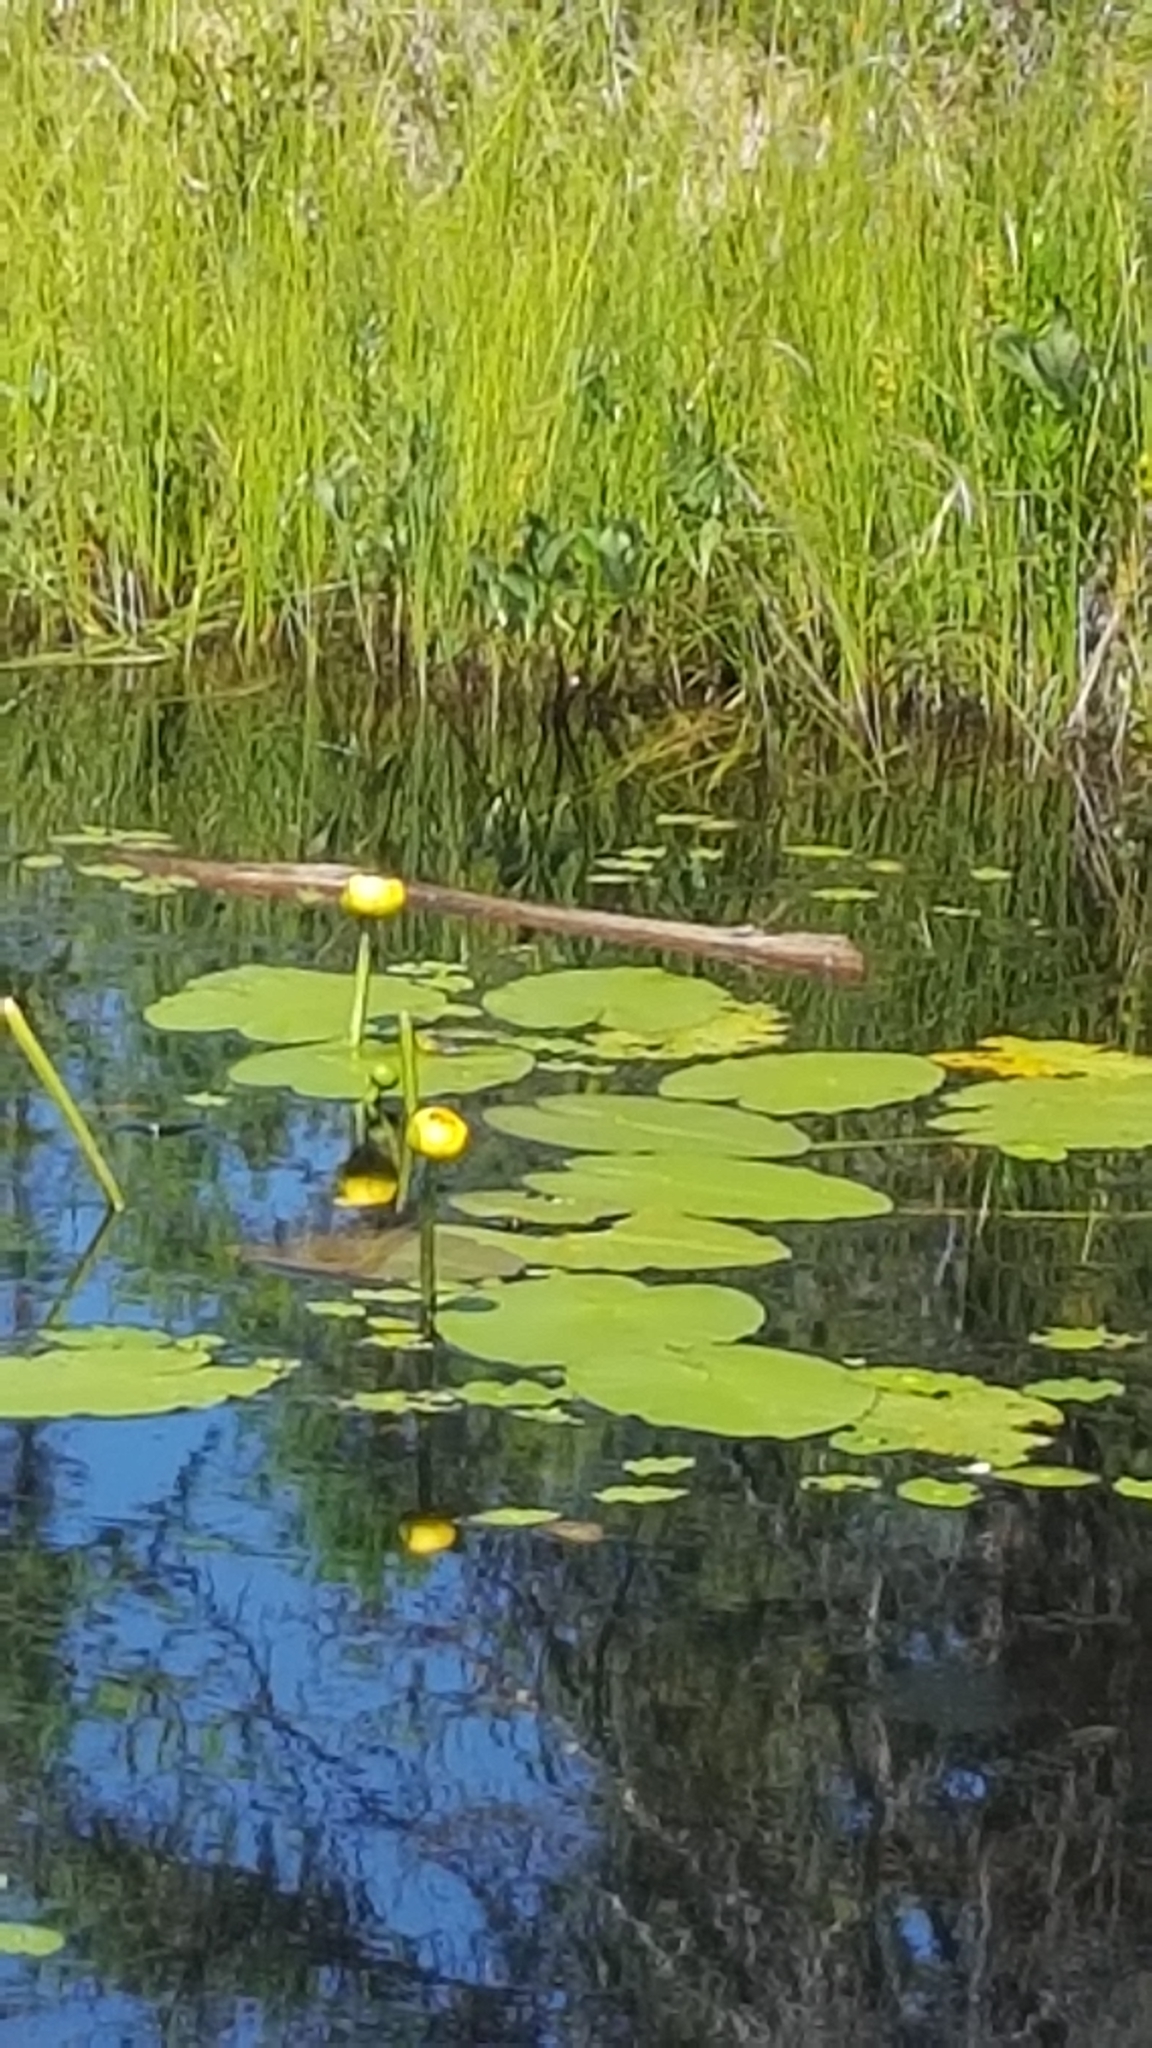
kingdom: Plantae
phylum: Tracheophyta
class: Magnoliopsida
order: Nymphaeales
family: Nymphaeaceae
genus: Nuphar
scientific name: Nuphar variegata
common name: Beaver-root
